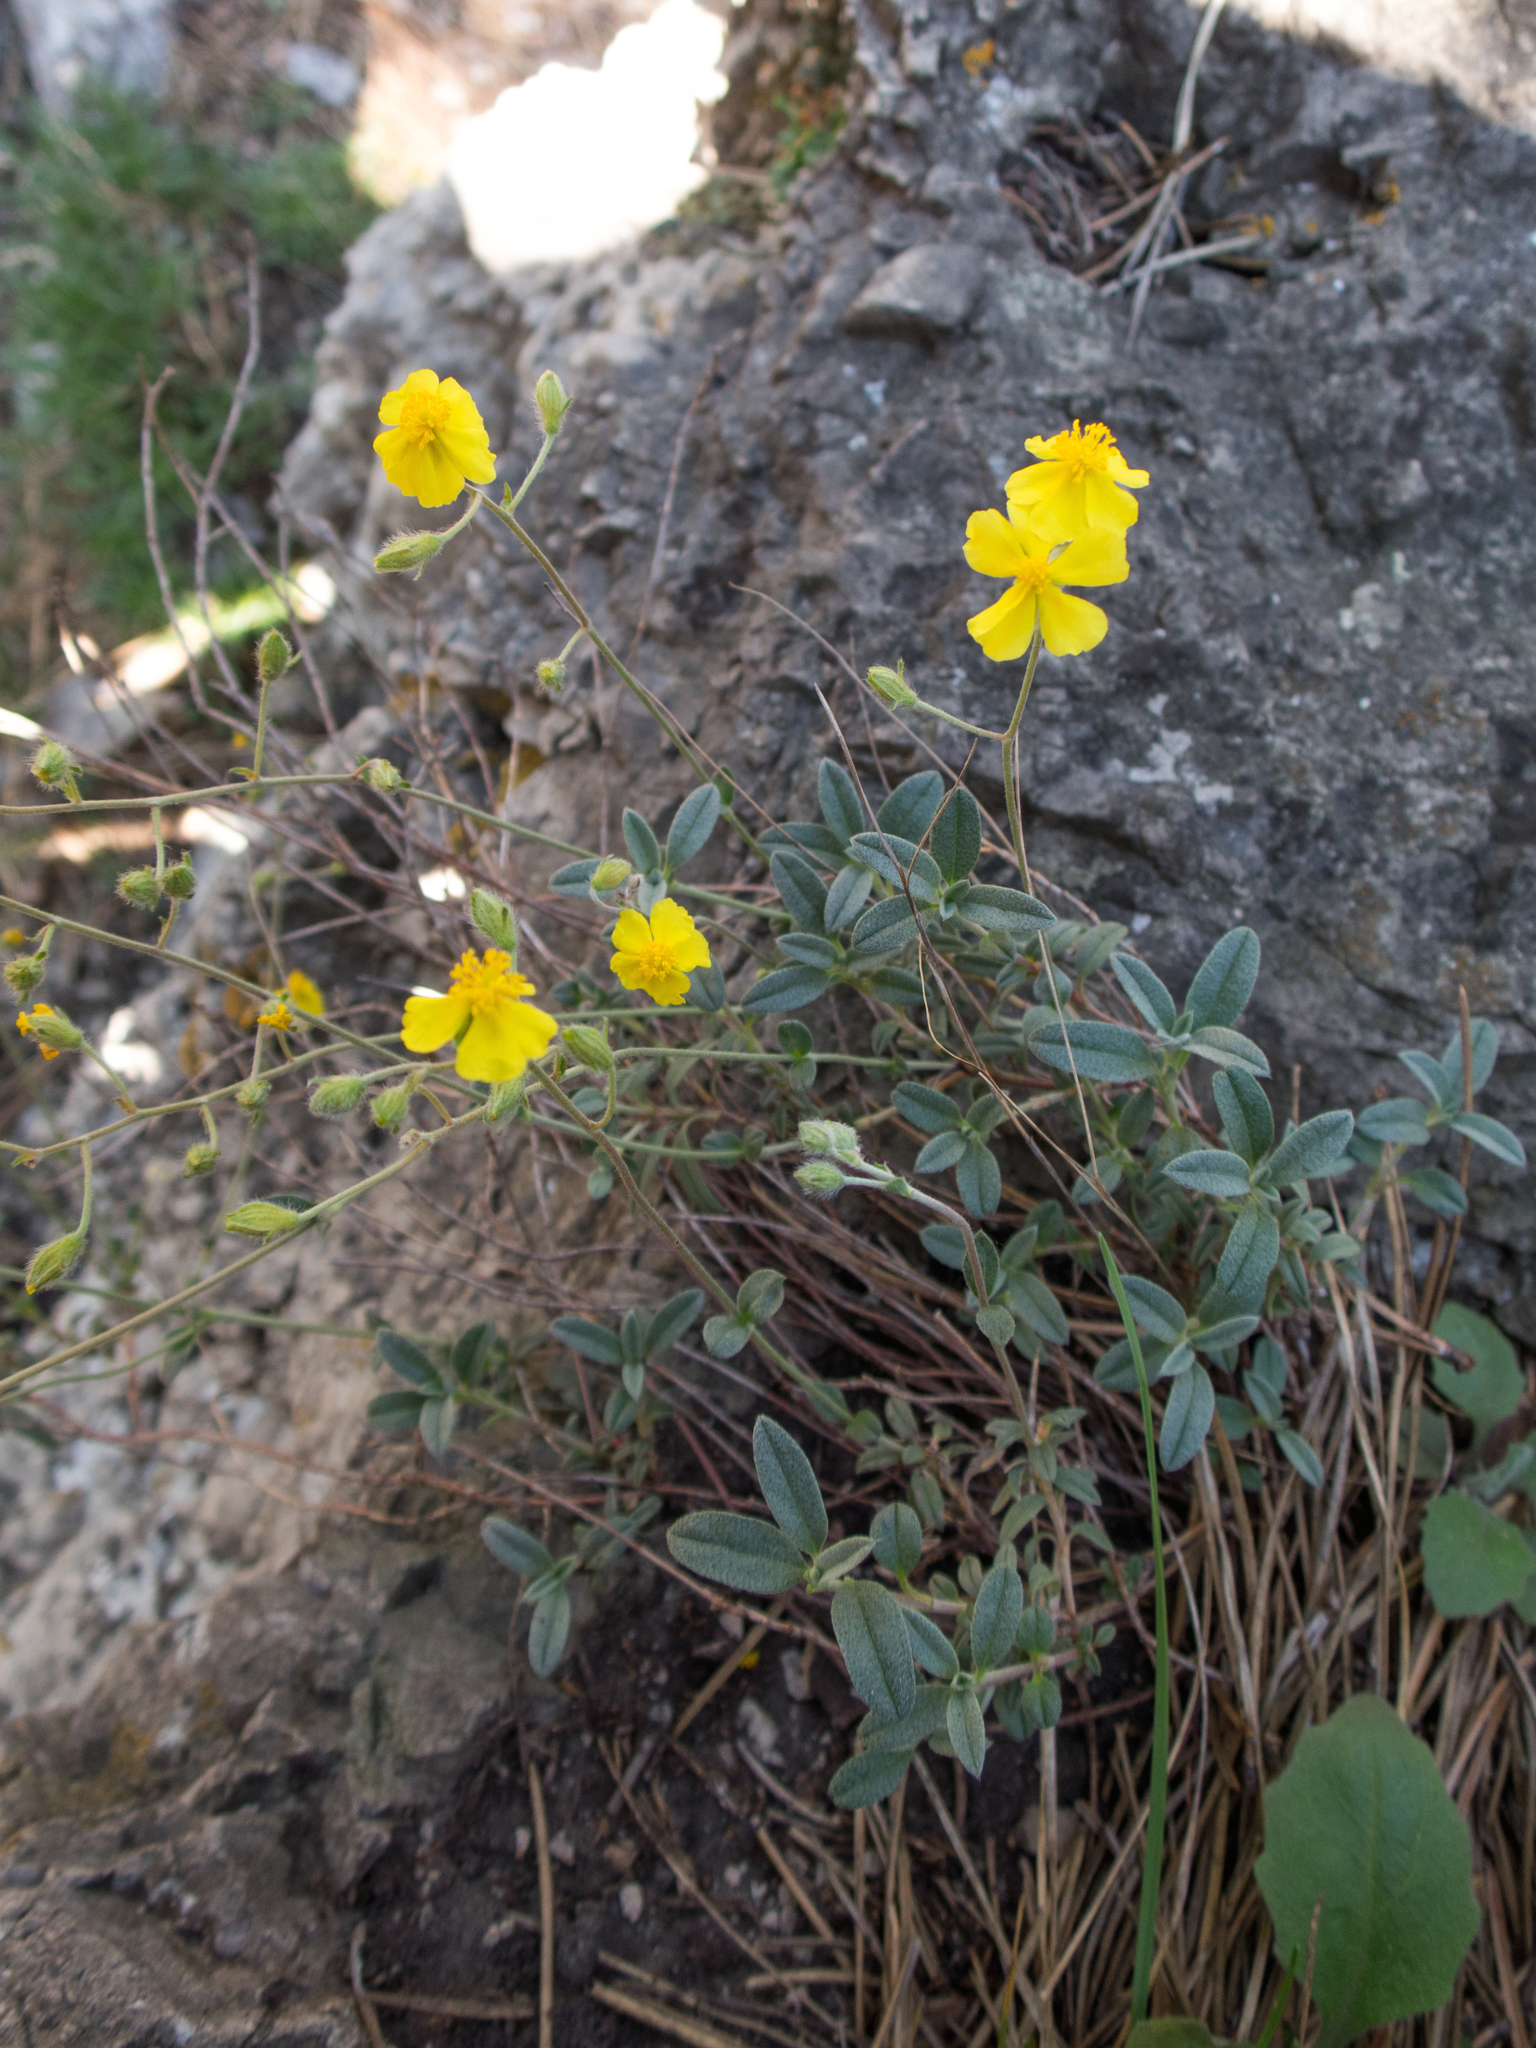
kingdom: Plantae
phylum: Tracheophyta
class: Magnoliopsida
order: Malvales
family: Cistaceae
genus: Helianthemum
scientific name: Helianthemum canum
